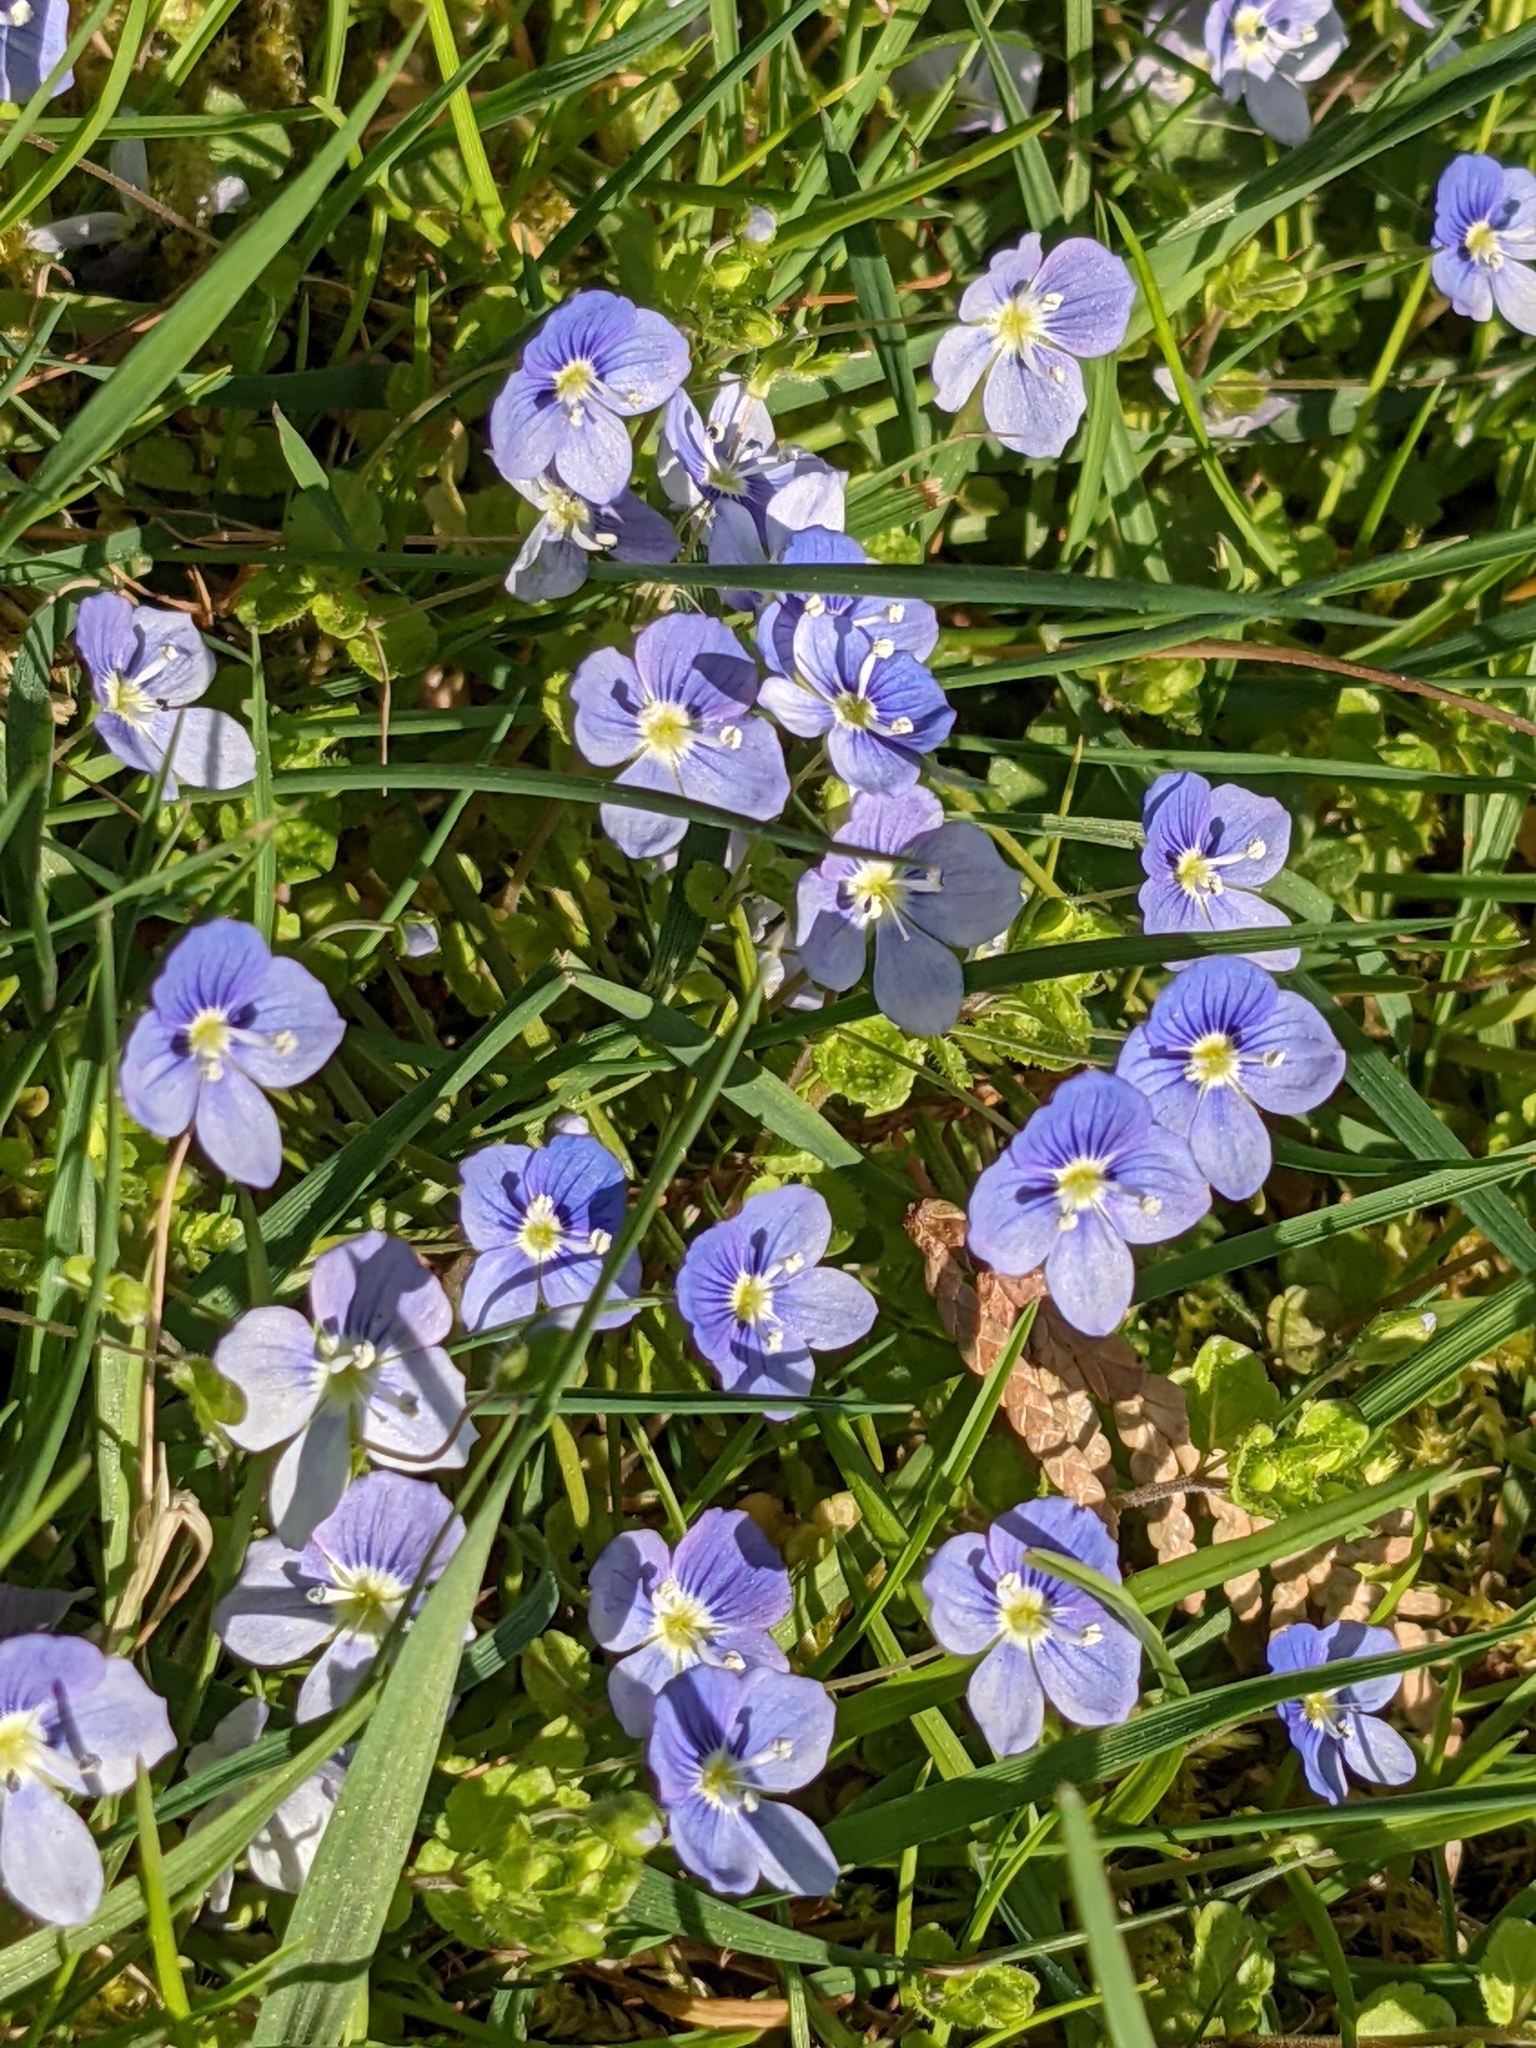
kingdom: Plantae
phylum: Tracheophyta
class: Magnoliopsida
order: Lamiales
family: Plantaginaceae
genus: Veronica
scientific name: Veronica filiformis
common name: Slender speedwell
